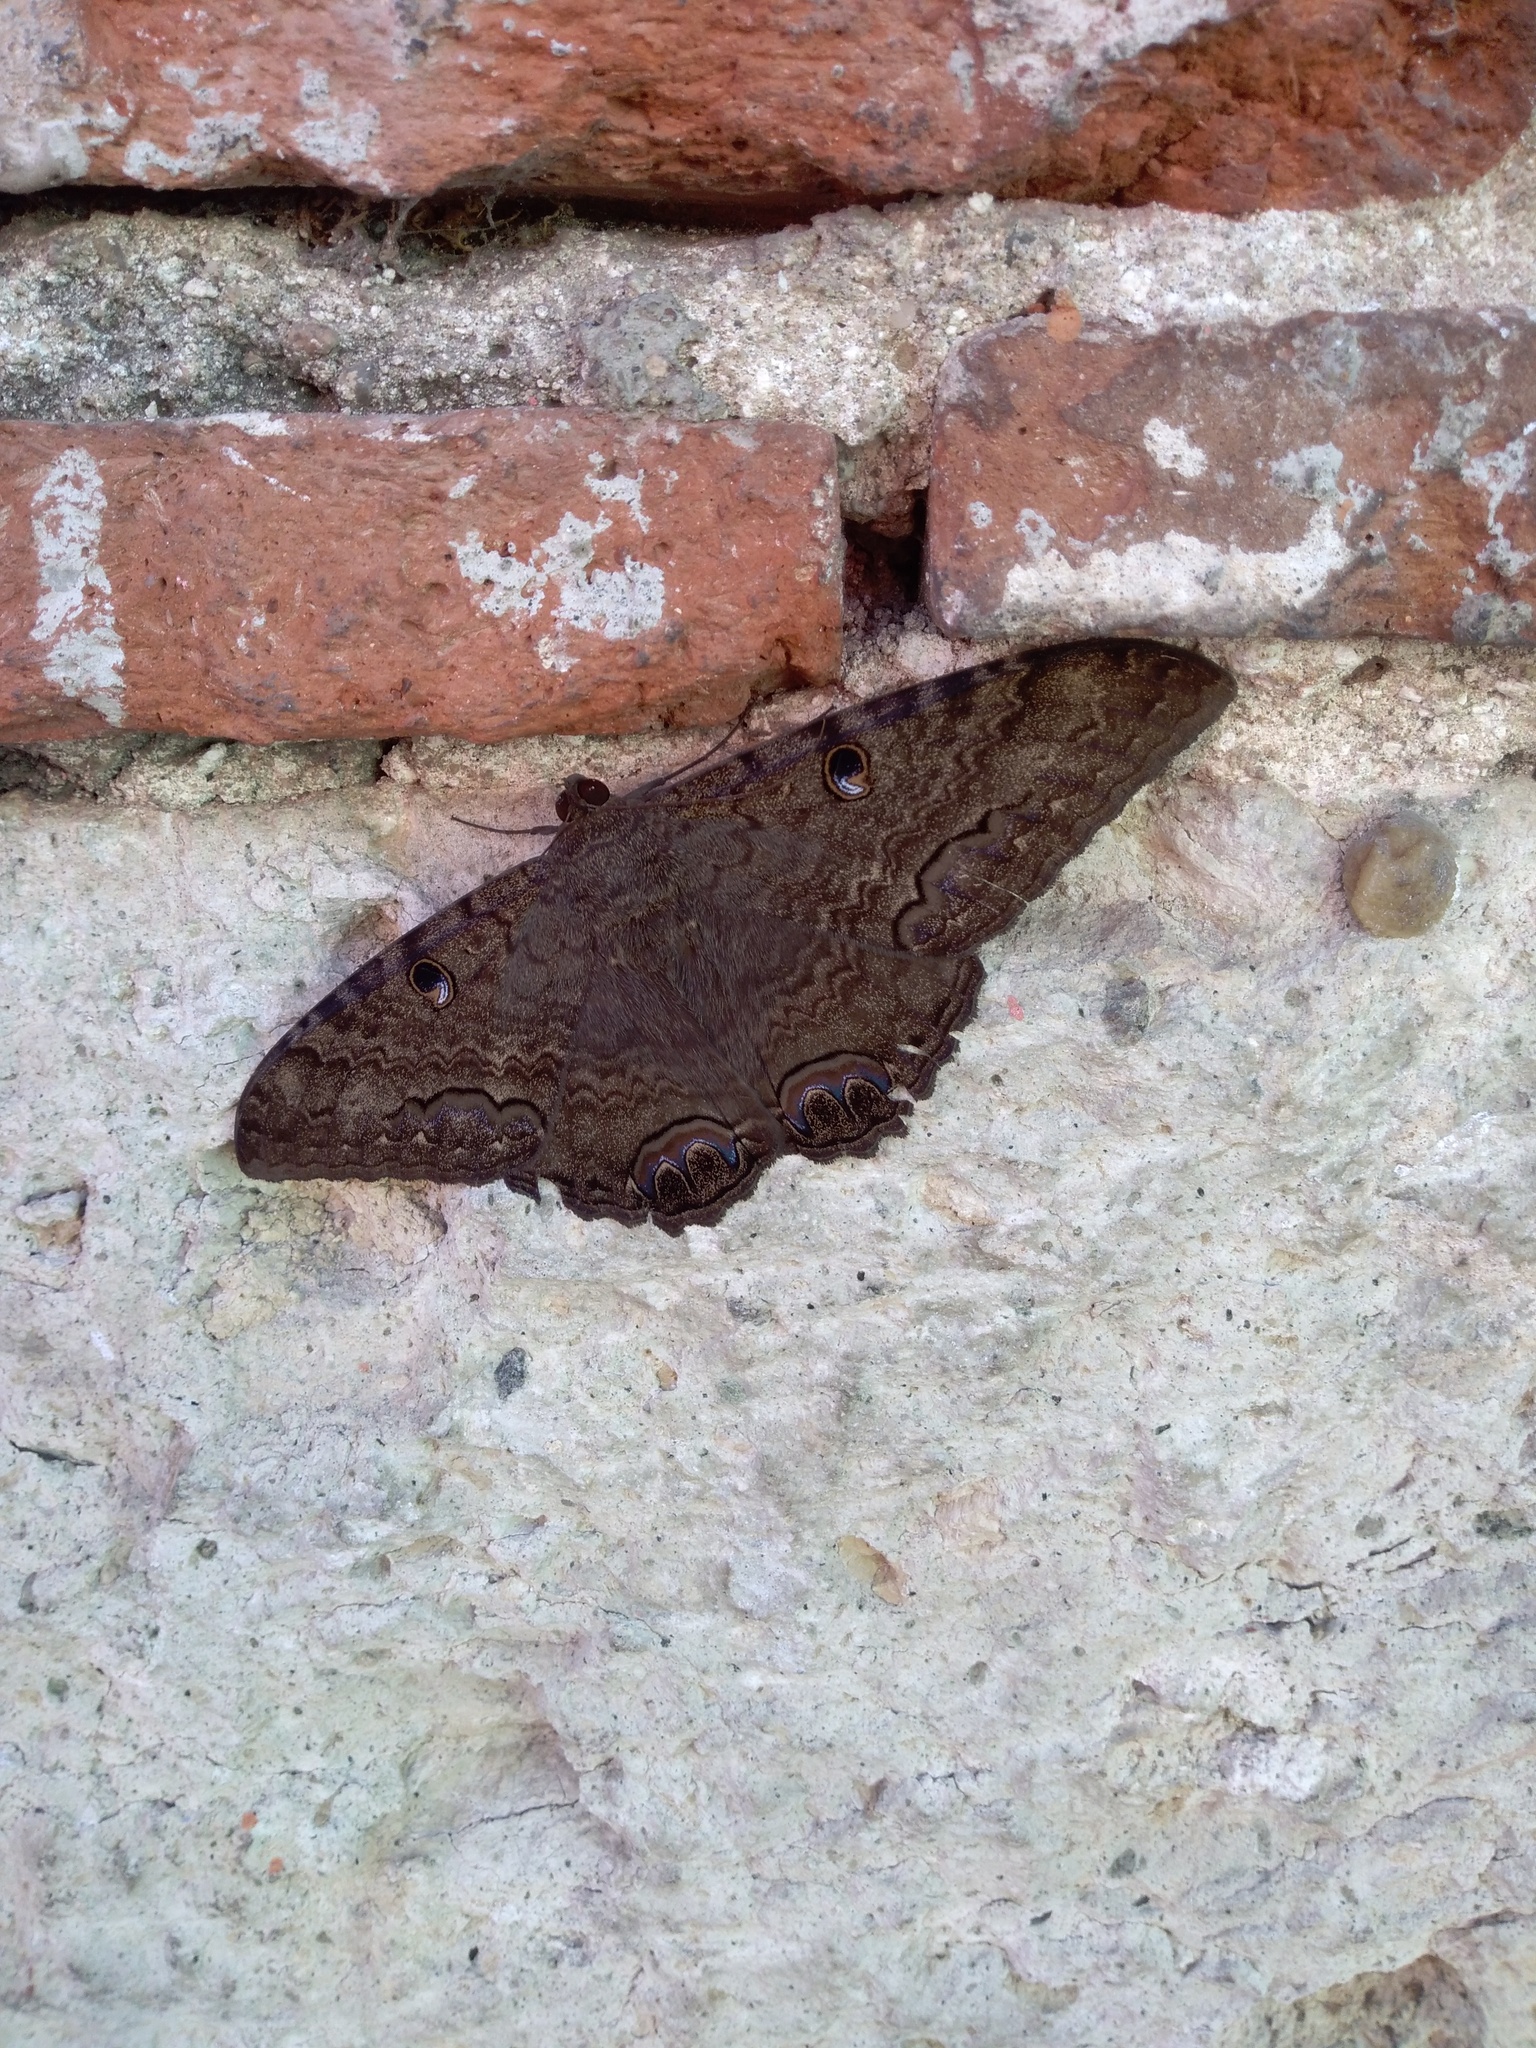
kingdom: Animalia
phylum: Arthropoda
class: Insecta
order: Lepidoptera
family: Erebidae
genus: Ascalapha
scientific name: Ascalapha odorata
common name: Black witch
